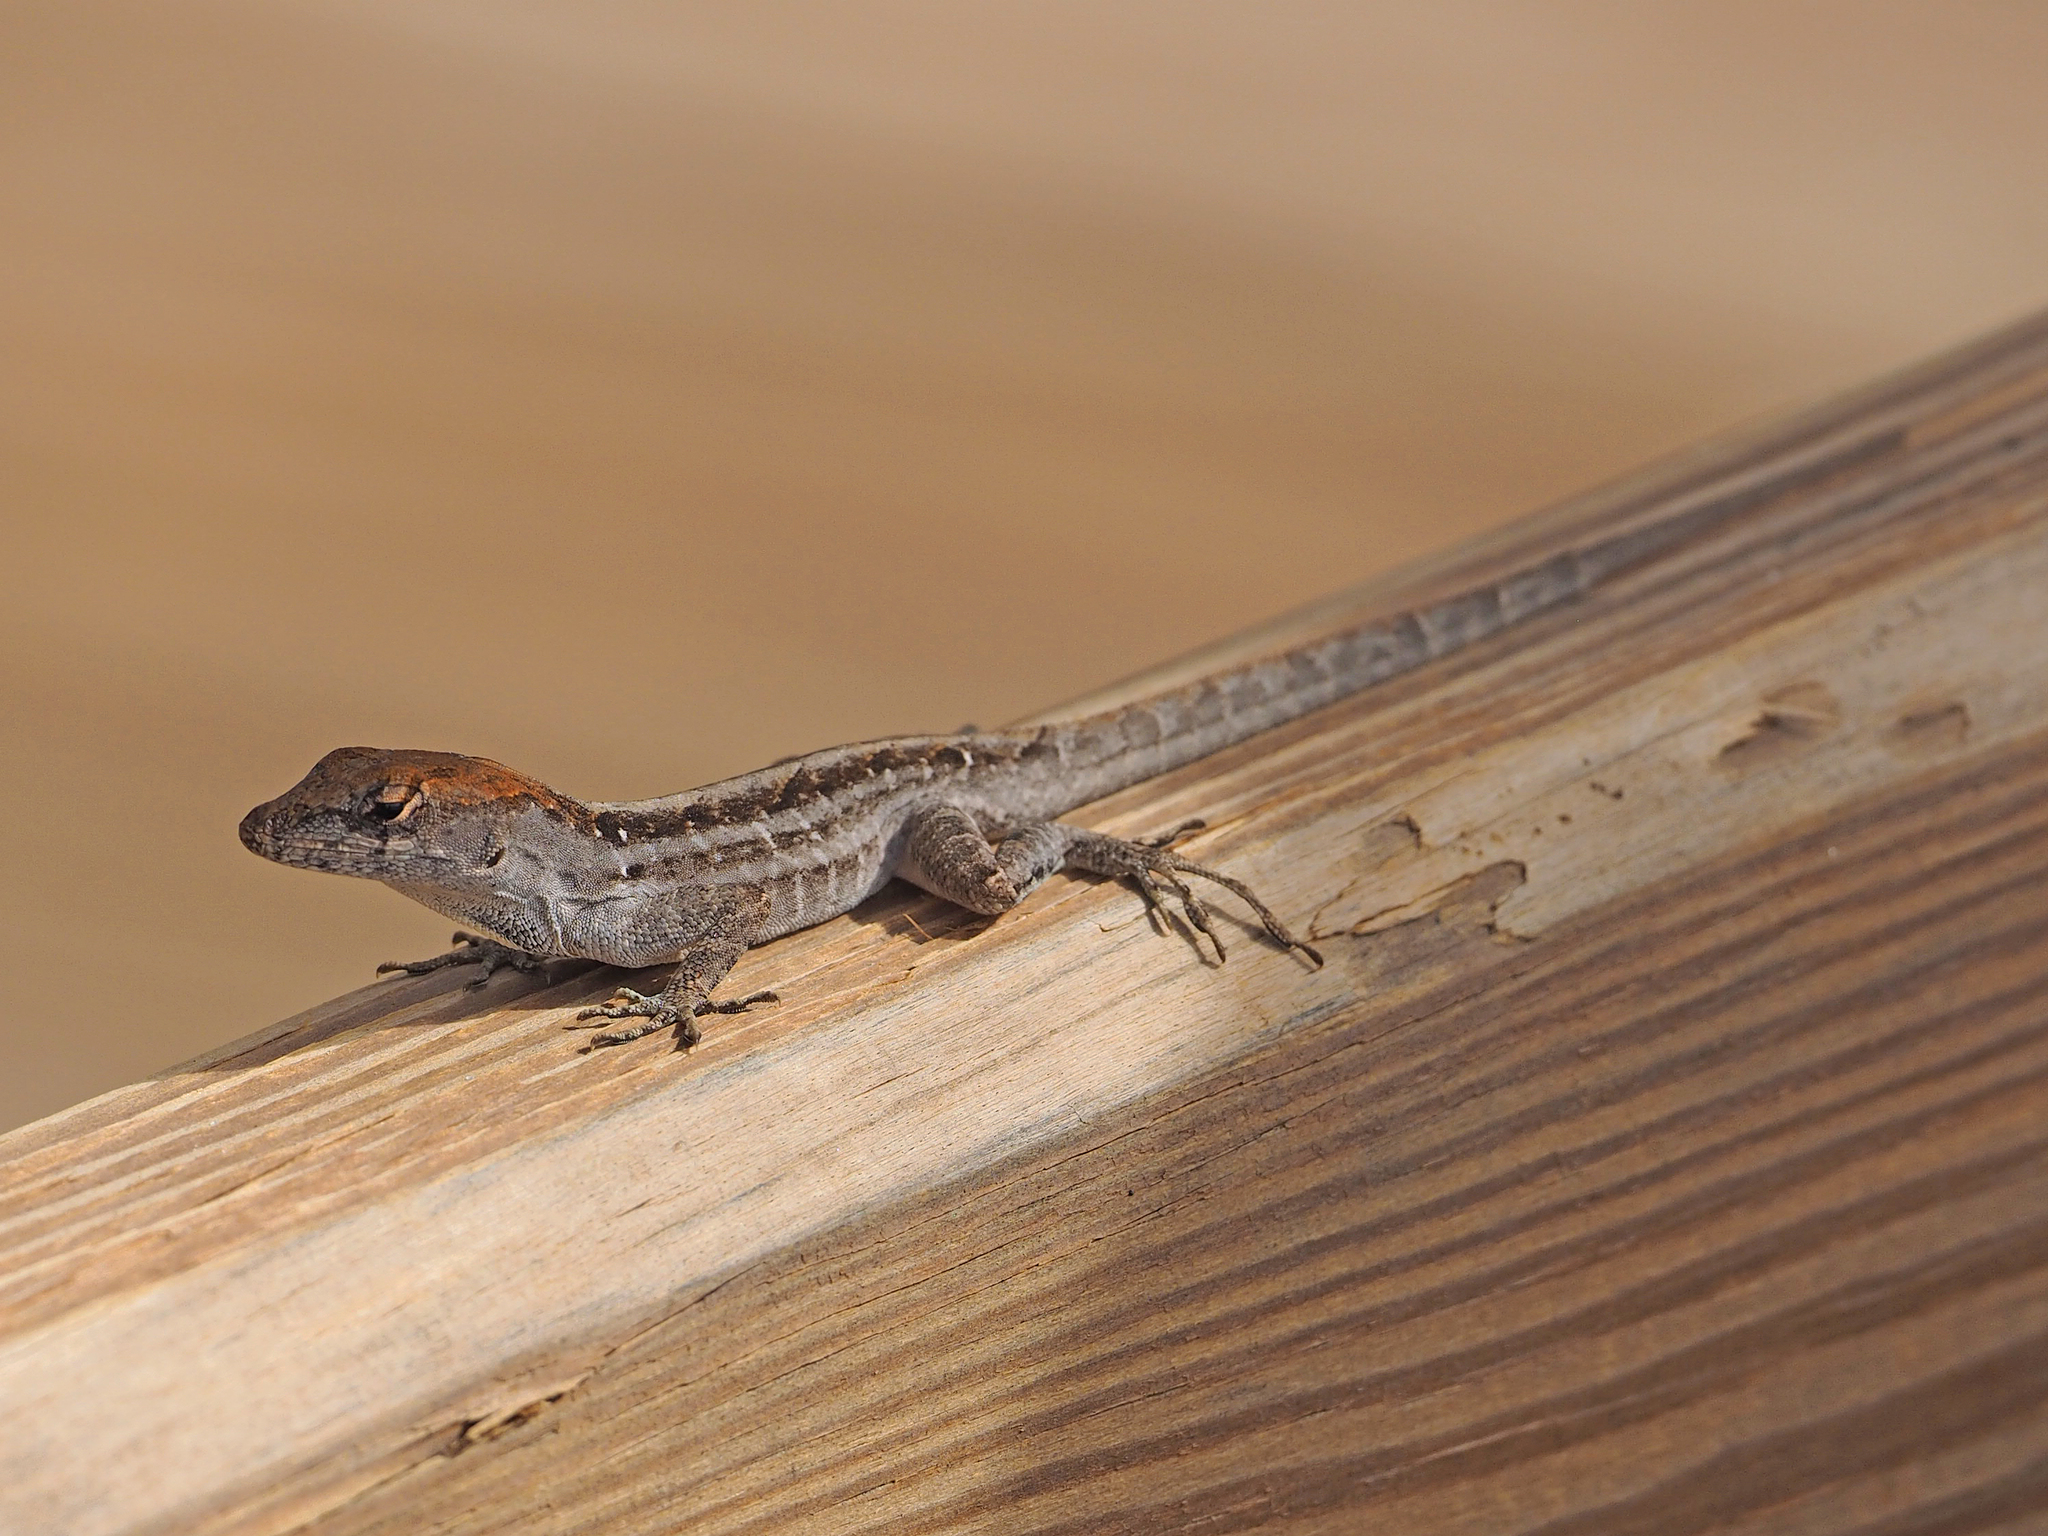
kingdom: Animalia
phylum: Chordata
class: Squamata
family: Dactyloidae
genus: Anolis
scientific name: Anolis sagrei
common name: Brown anole
